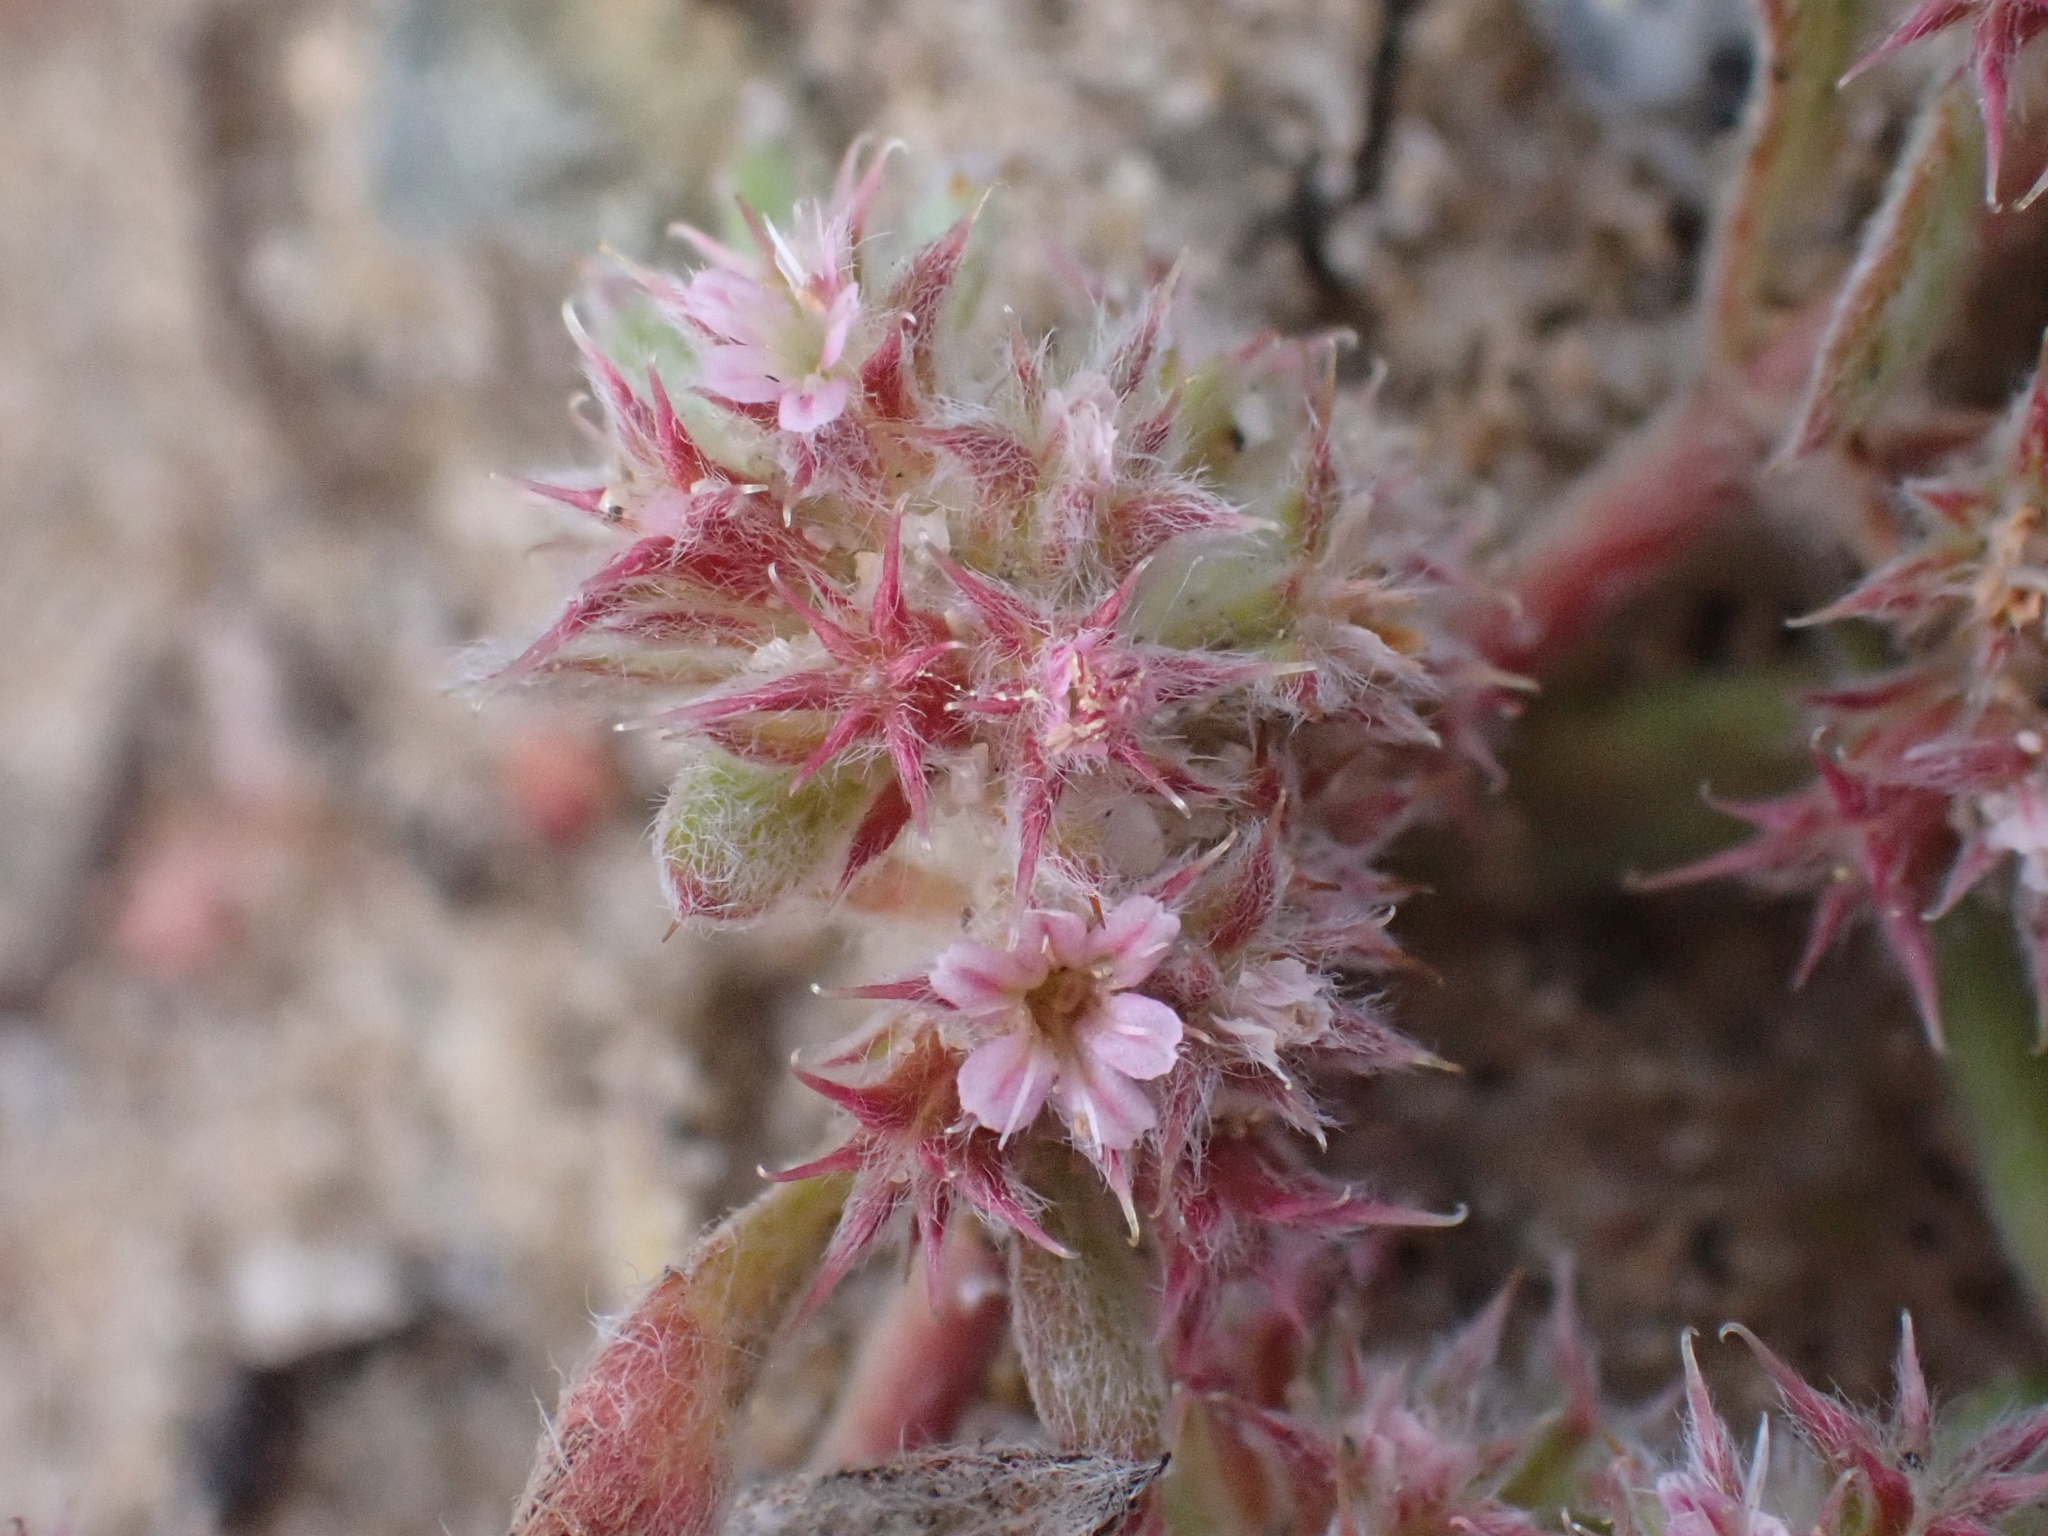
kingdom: Plantae
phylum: Tracheophyta
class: Magnoliopsida
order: Caryophyllales
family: Polygonaceae
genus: Chorizanthe
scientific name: Chorizanthe eastwoodiae
